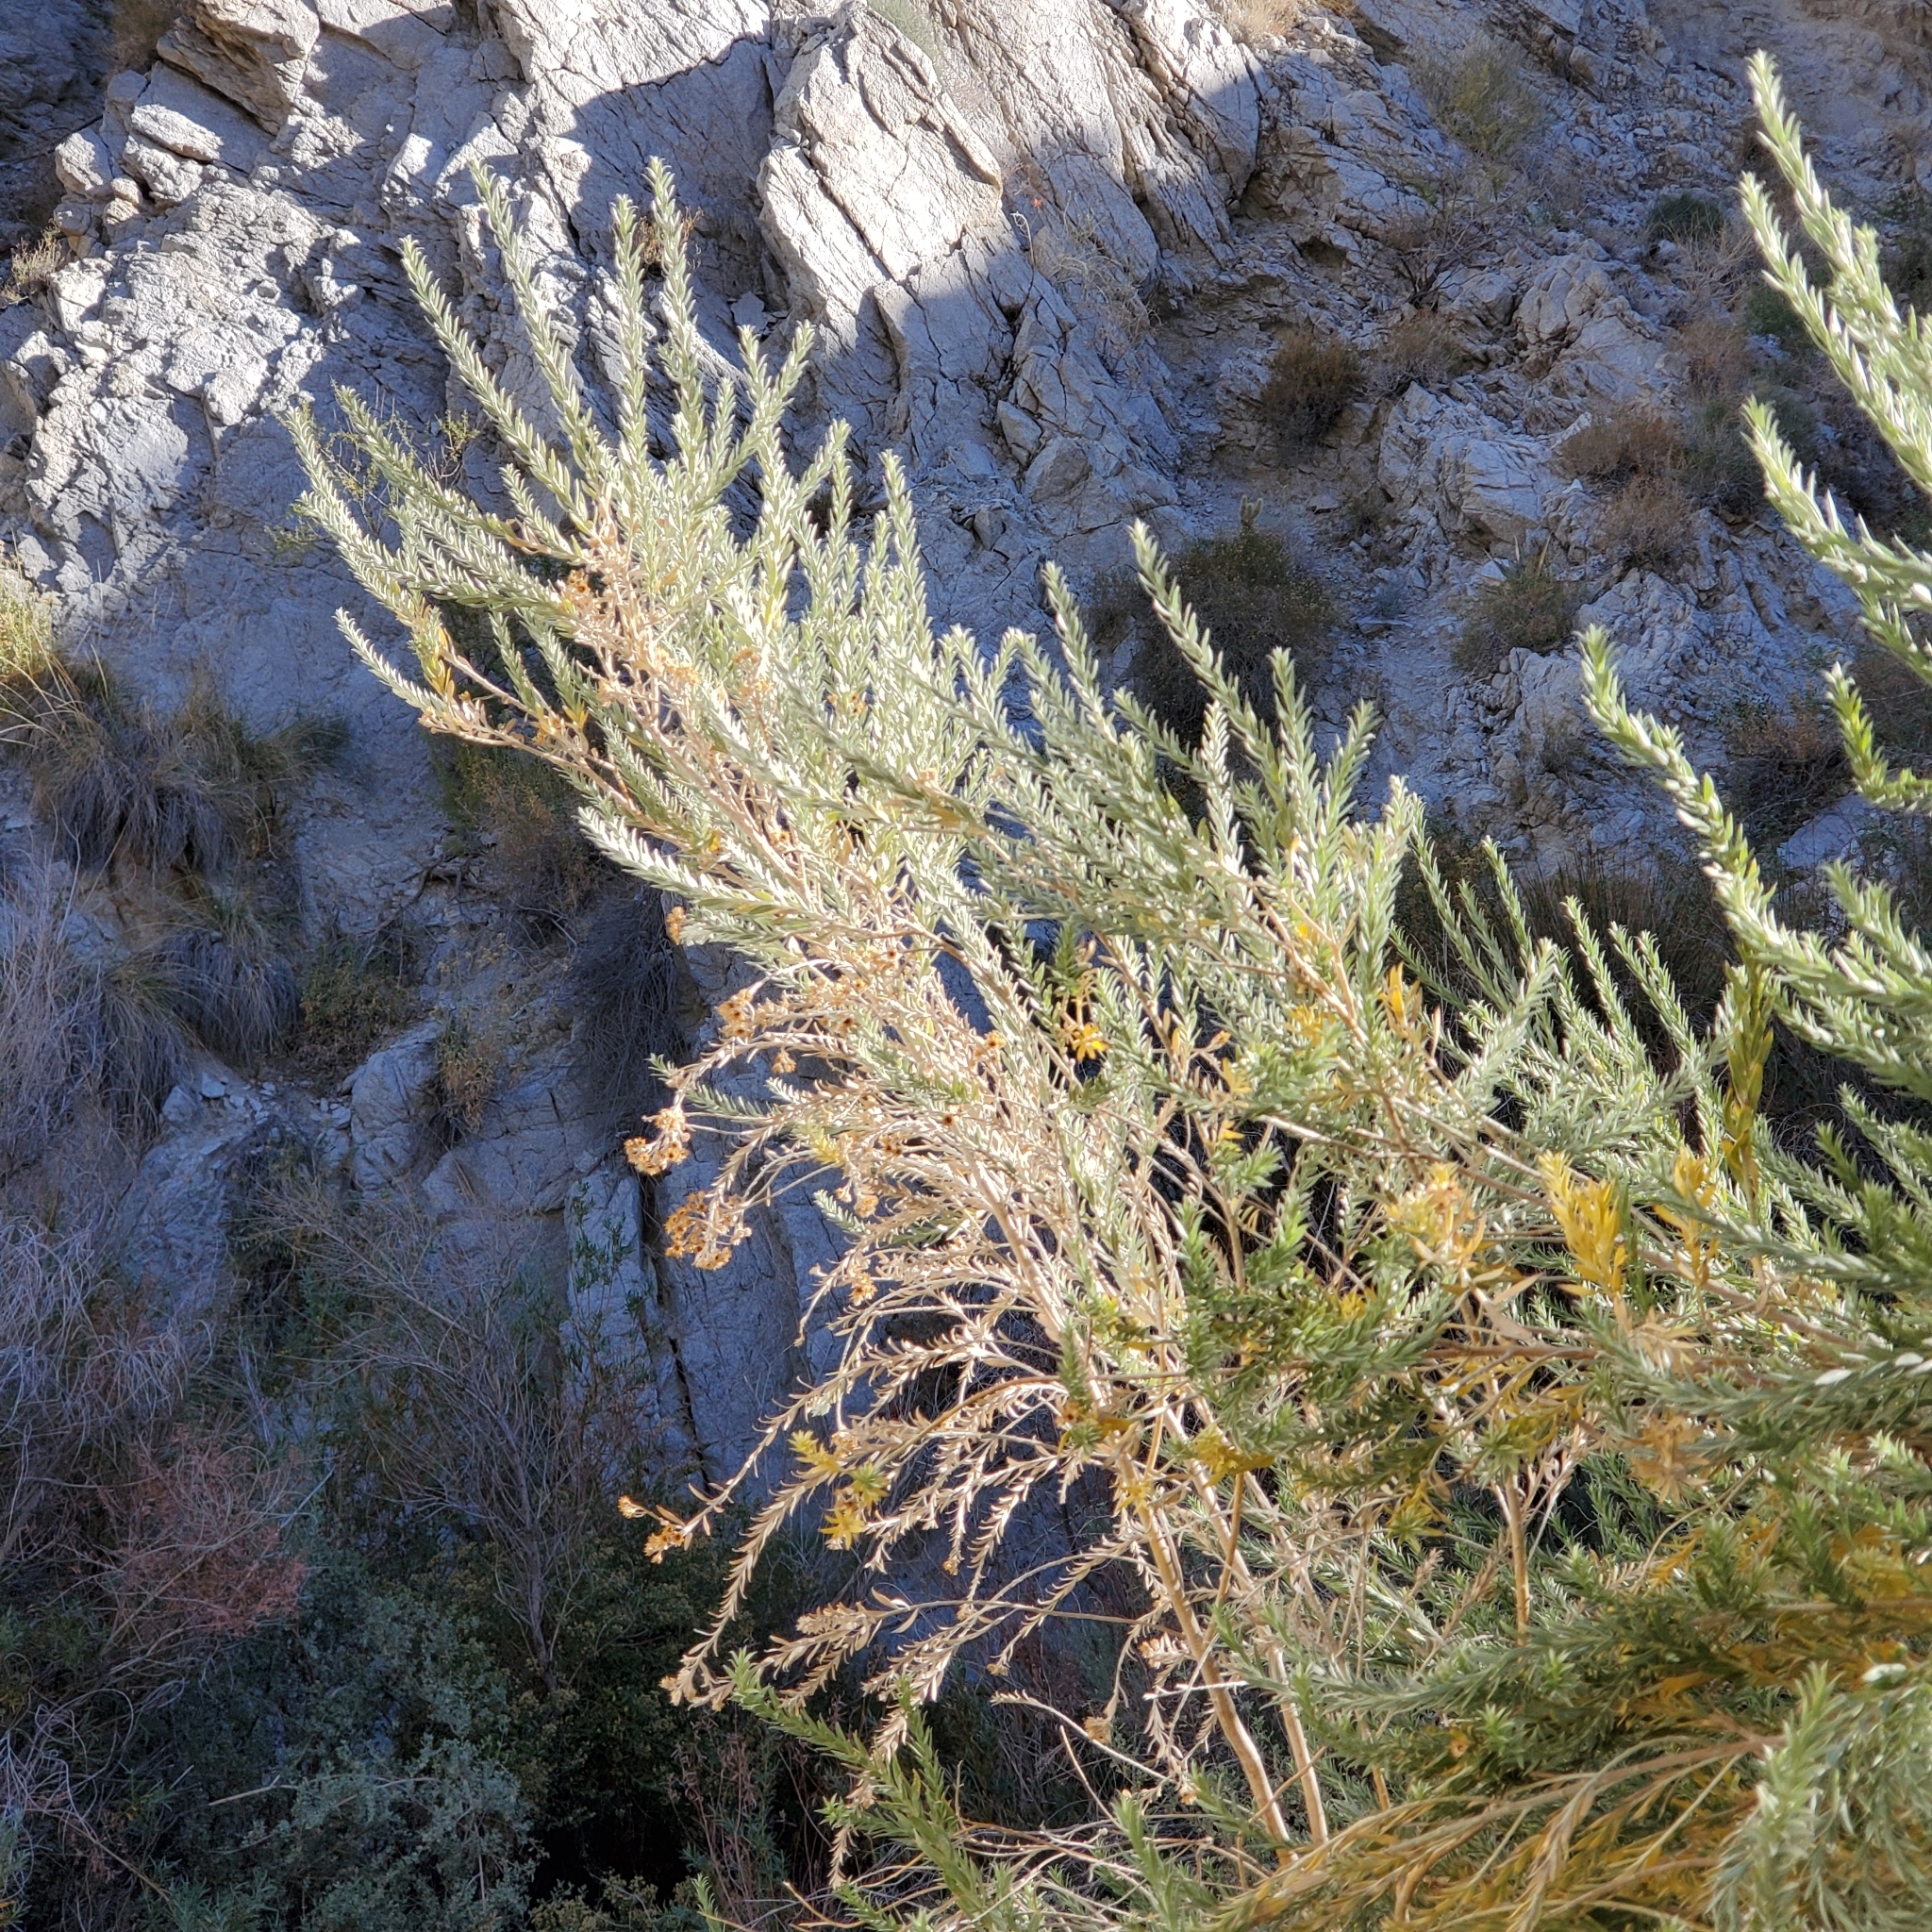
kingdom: Plantae
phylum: Tracheophyta
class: Magnoliopsida
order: Asterales
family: Asteraceae
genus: Pluchea
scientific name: Pluchea sericea
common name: Arrow-weed
